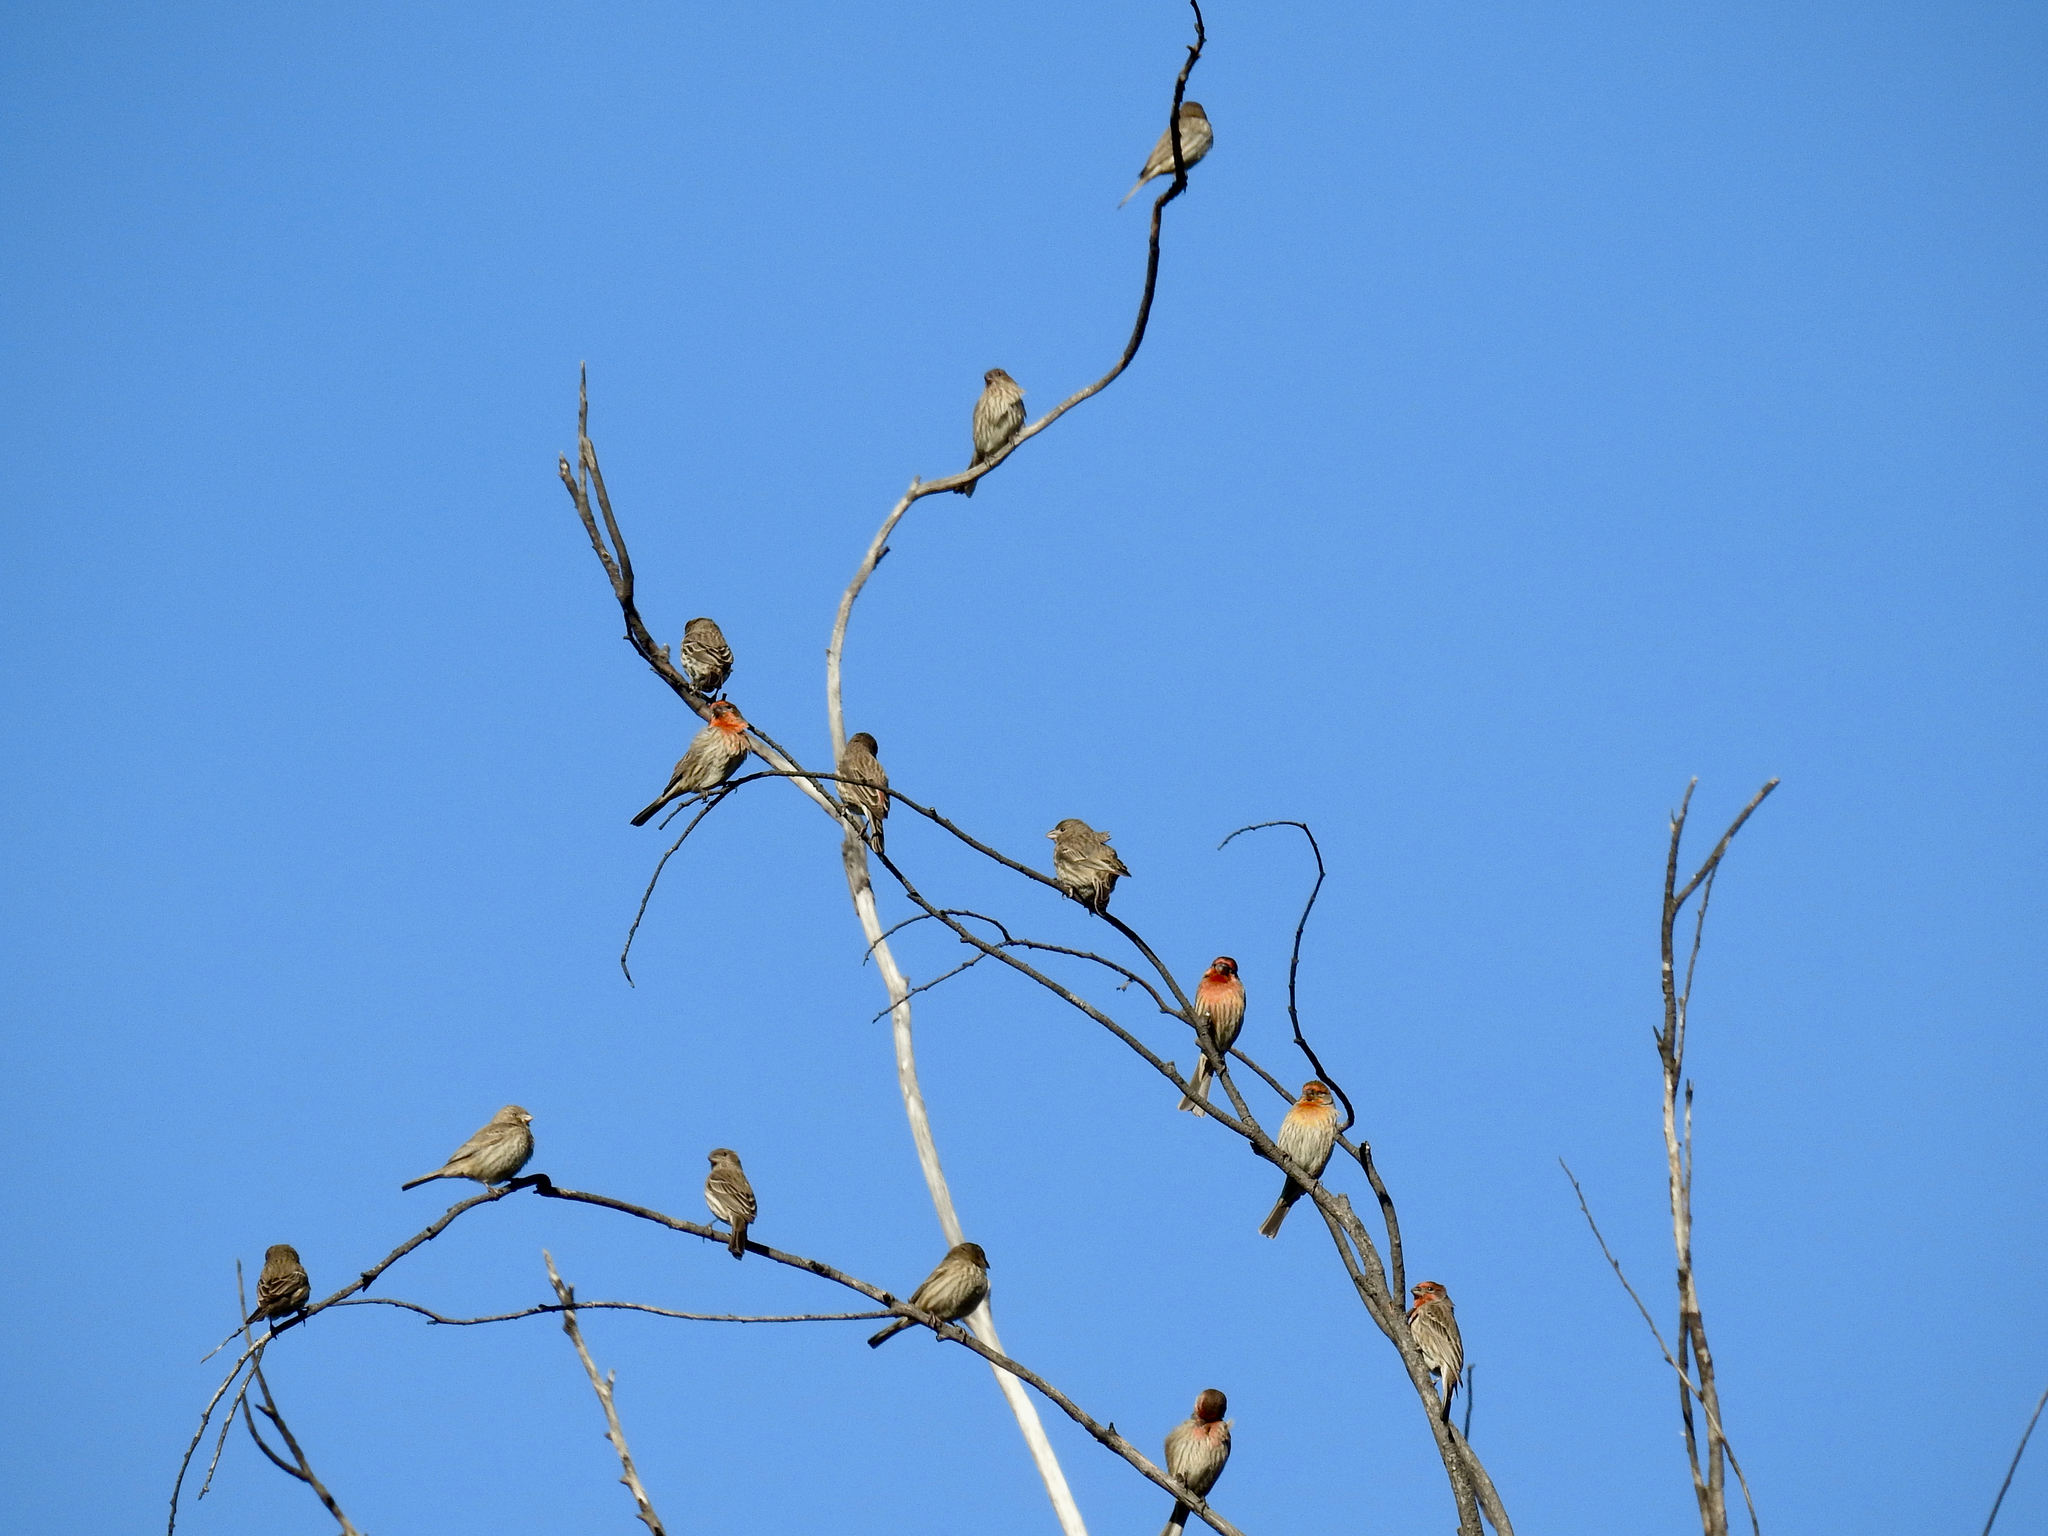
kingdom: Animalia
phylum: Chordata
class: Aves
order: Passeriformes
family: Fringillidae
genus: Haemorhous
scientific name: Haemorhous mexicanus
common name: House finch
